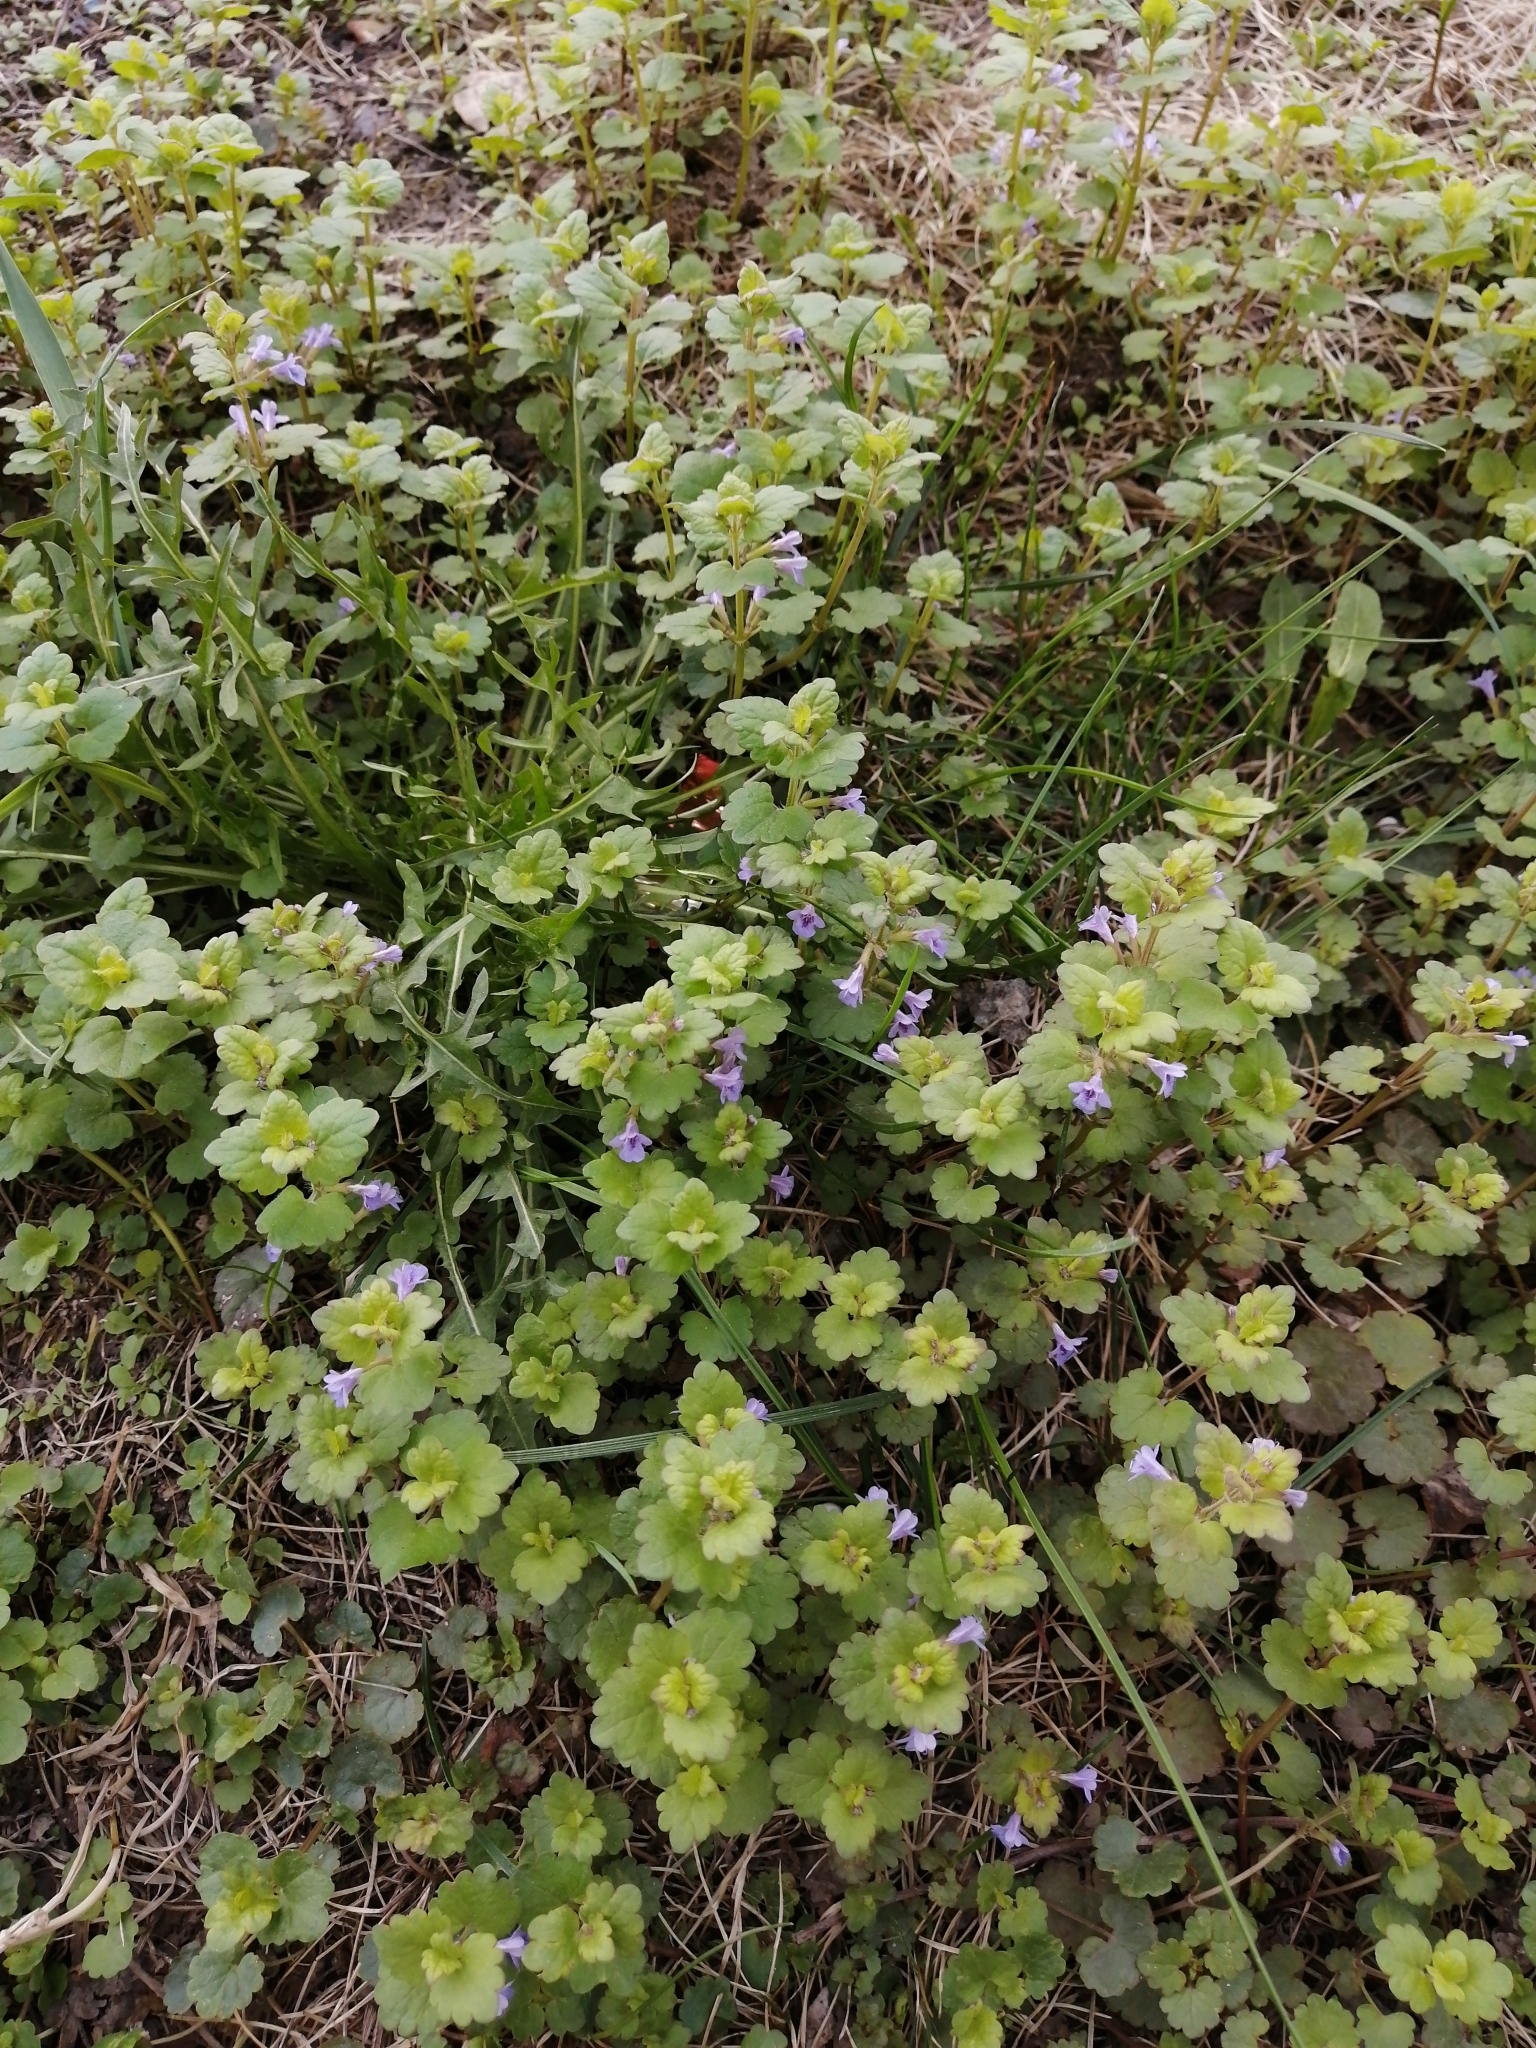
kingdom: Plantae
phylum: Tracheophyta
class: Magnoliopsida
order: Lamiales
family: Lamiaceae
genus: Glechoma
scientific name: Glechoma hederacea
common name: Ground ivy
